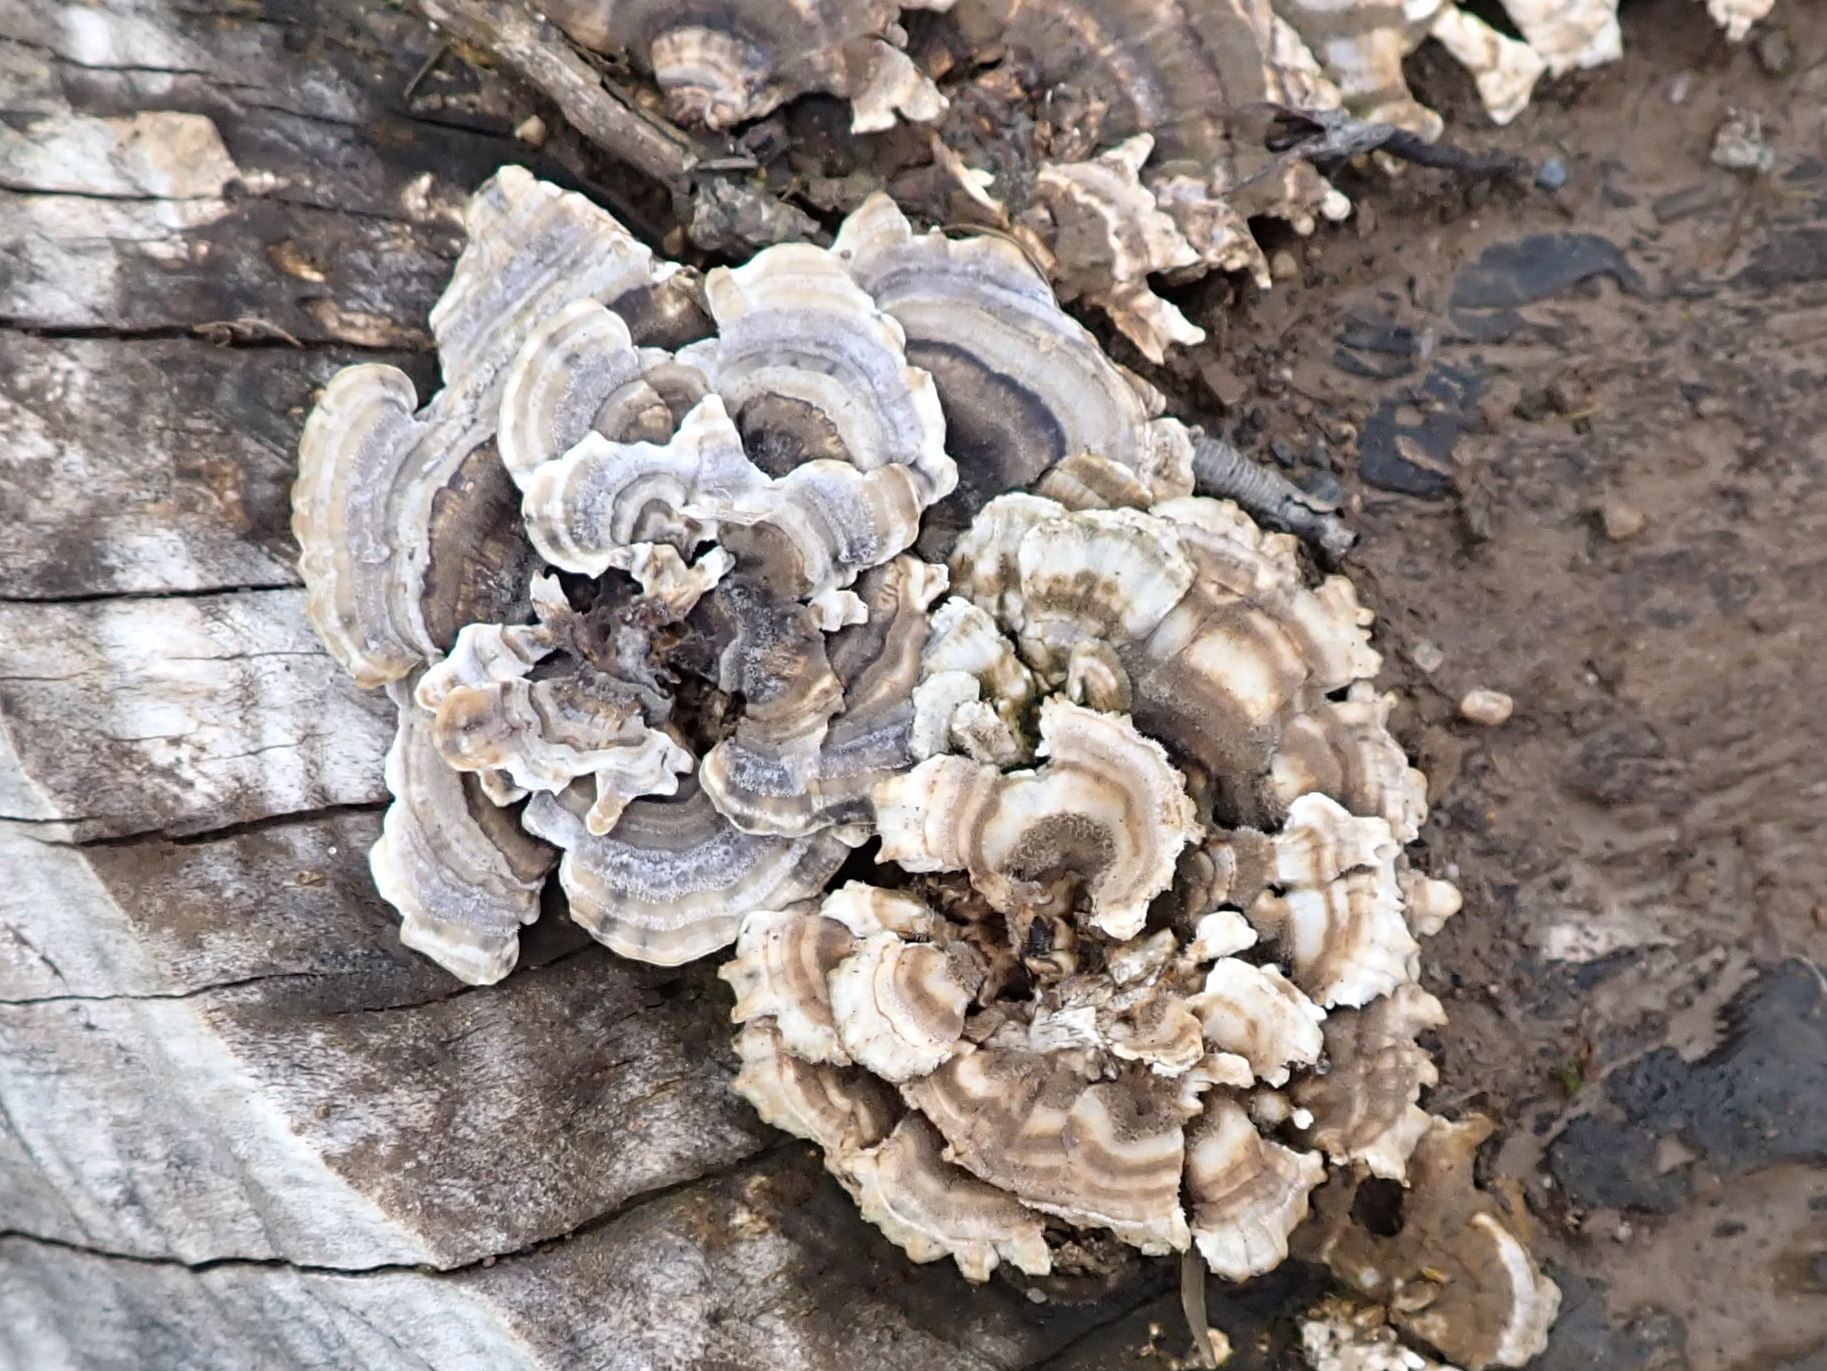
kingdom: Fungi
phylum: Basidiomycota
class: Agaricomycetes
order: Polyporales
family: Polyporaceae
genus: Trametes
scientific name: Trametes versicolor
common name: Turkeytail
